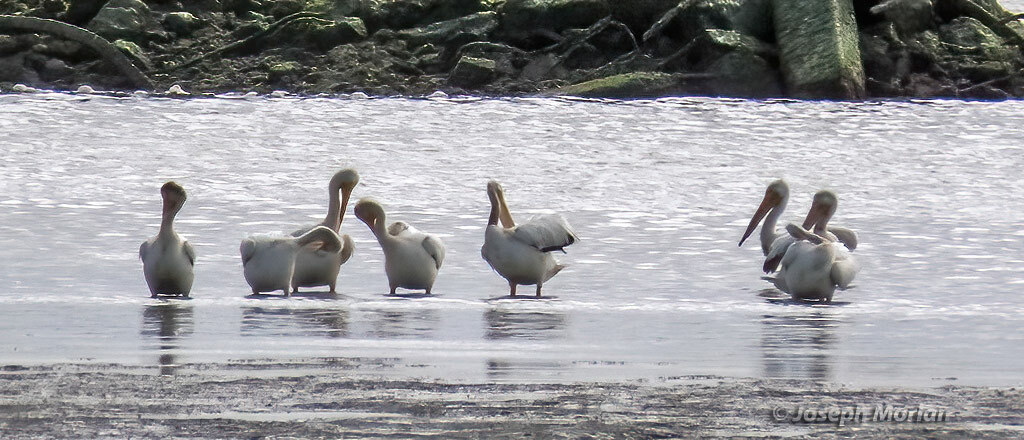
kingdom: Animalia
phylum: Chordata
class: Aves
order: Pelecaniformes
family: Pelecanidae
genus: Pelecanus
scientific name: Pelecanus erythrorhynchos
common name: American white pelican
